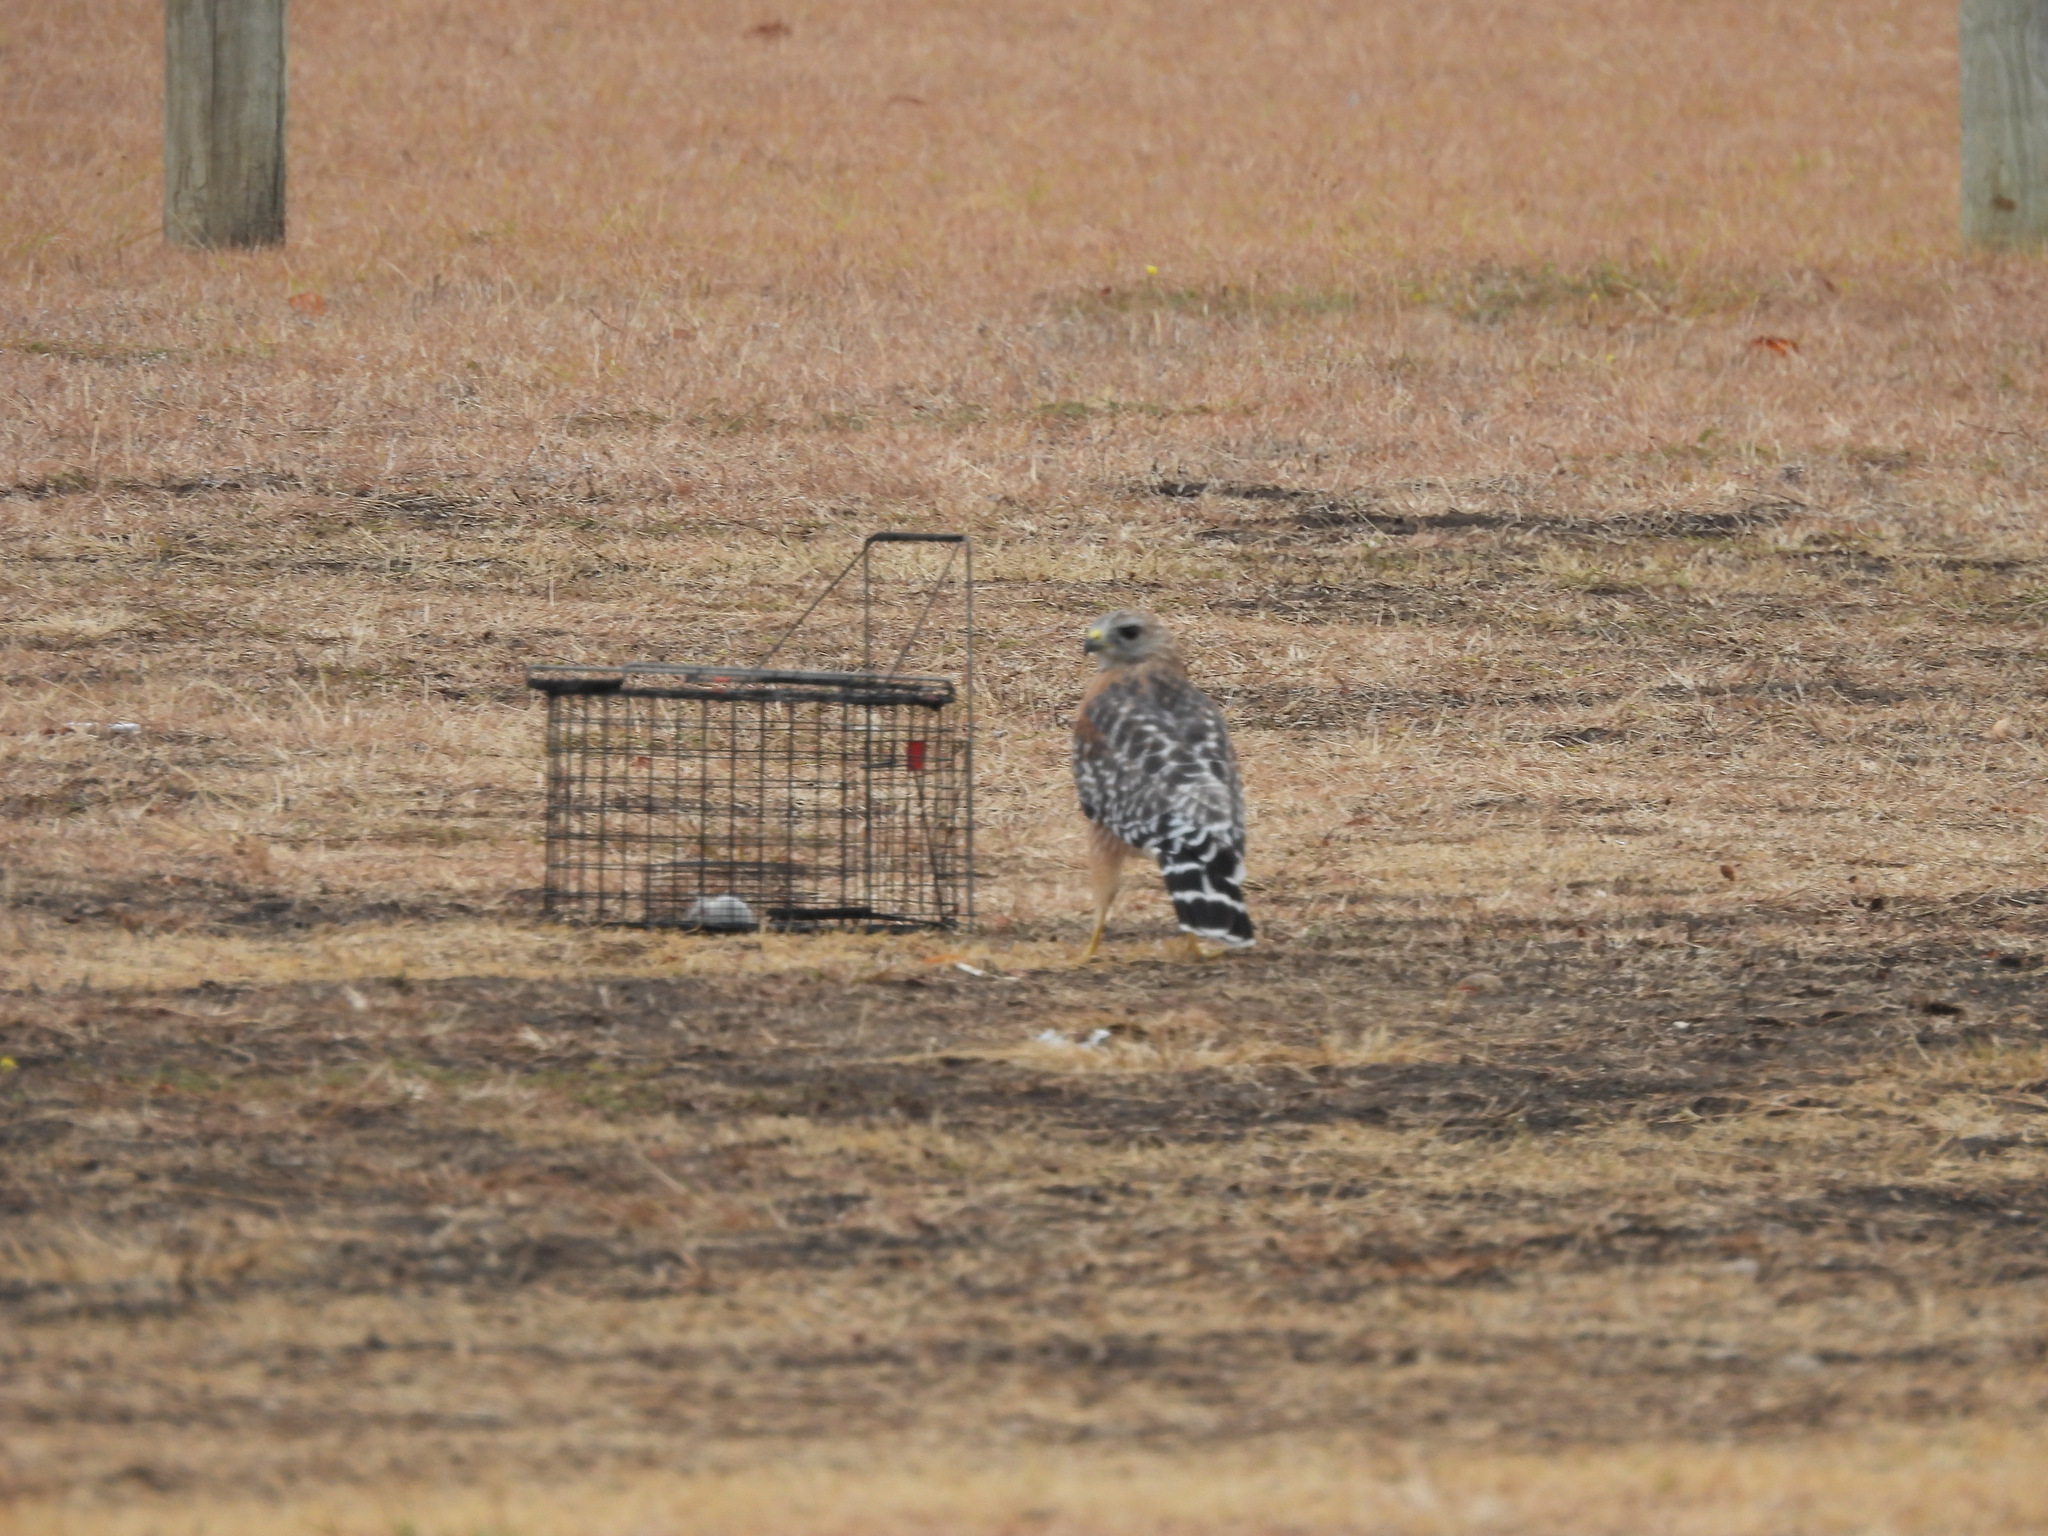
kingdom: Animalia
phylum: Chordata
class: Aves
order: Accipitriformes
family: Accipitridae
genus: Buteo
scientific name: Buteo lineatus
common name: Red-shouldered hawk
